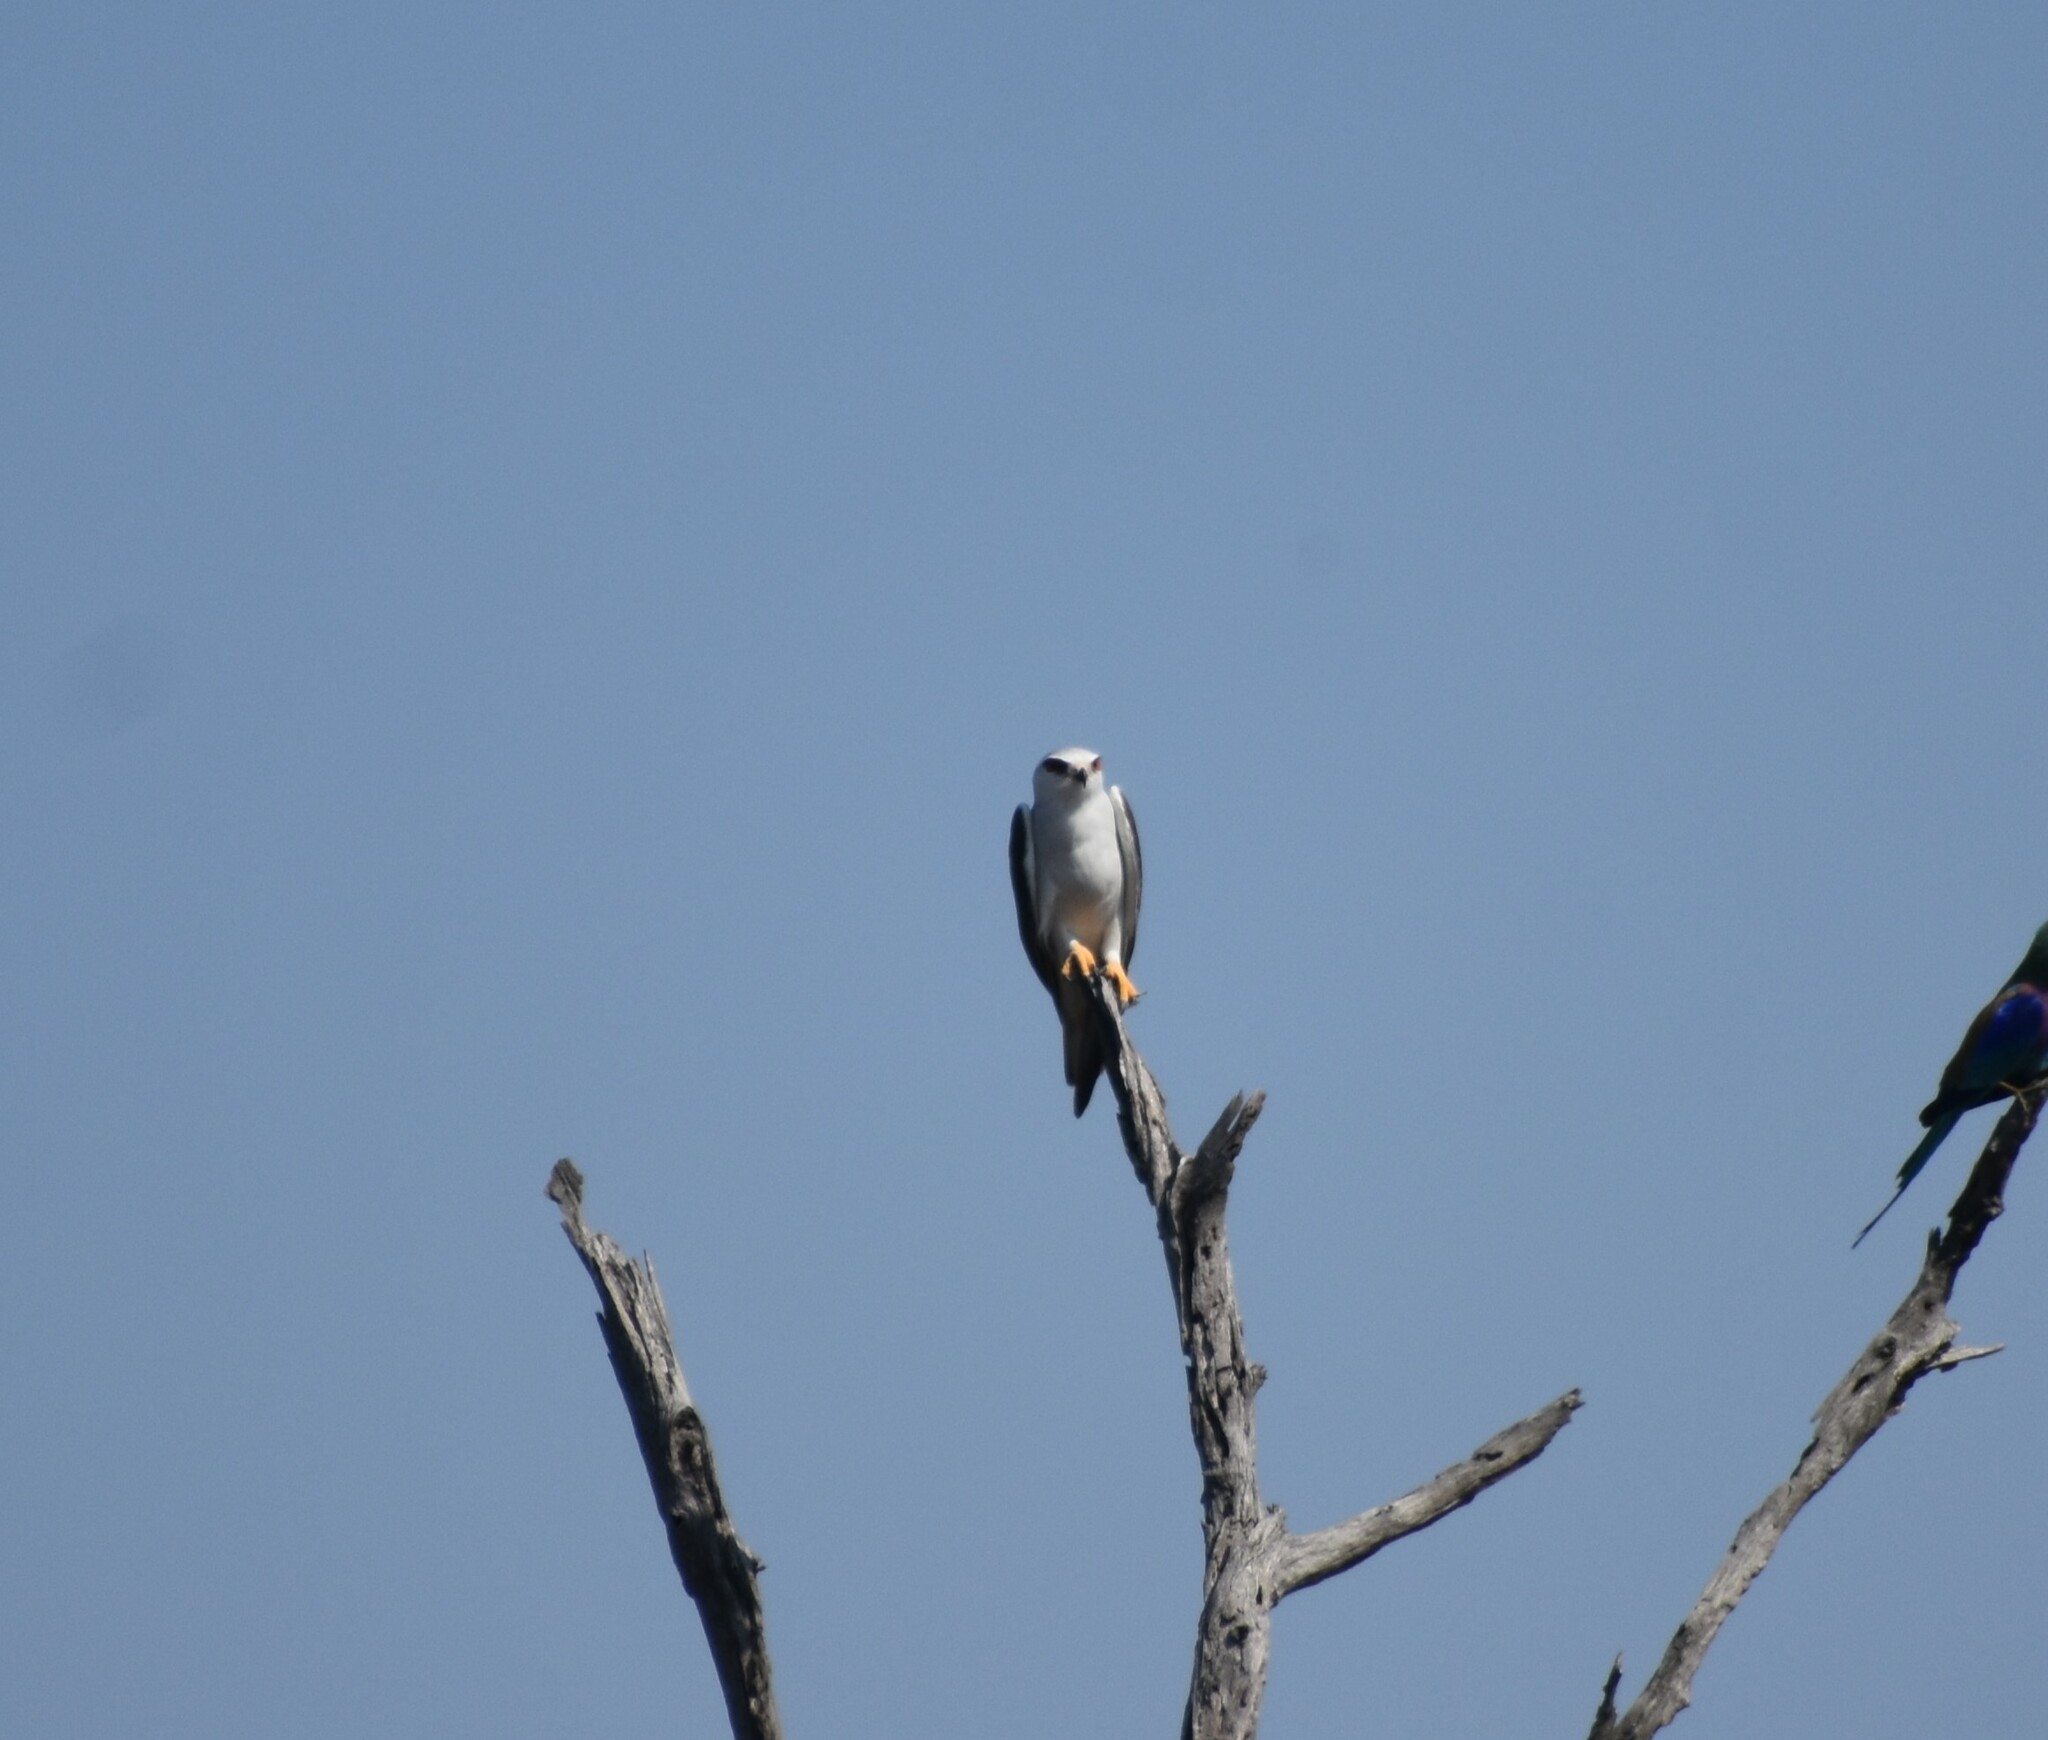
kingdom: Animalia
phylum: Chordata
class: Aves
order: Accipitriformes
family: Accipitridae
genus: Elanus
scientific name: Elanus caeruleus
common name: Black-winged kite
